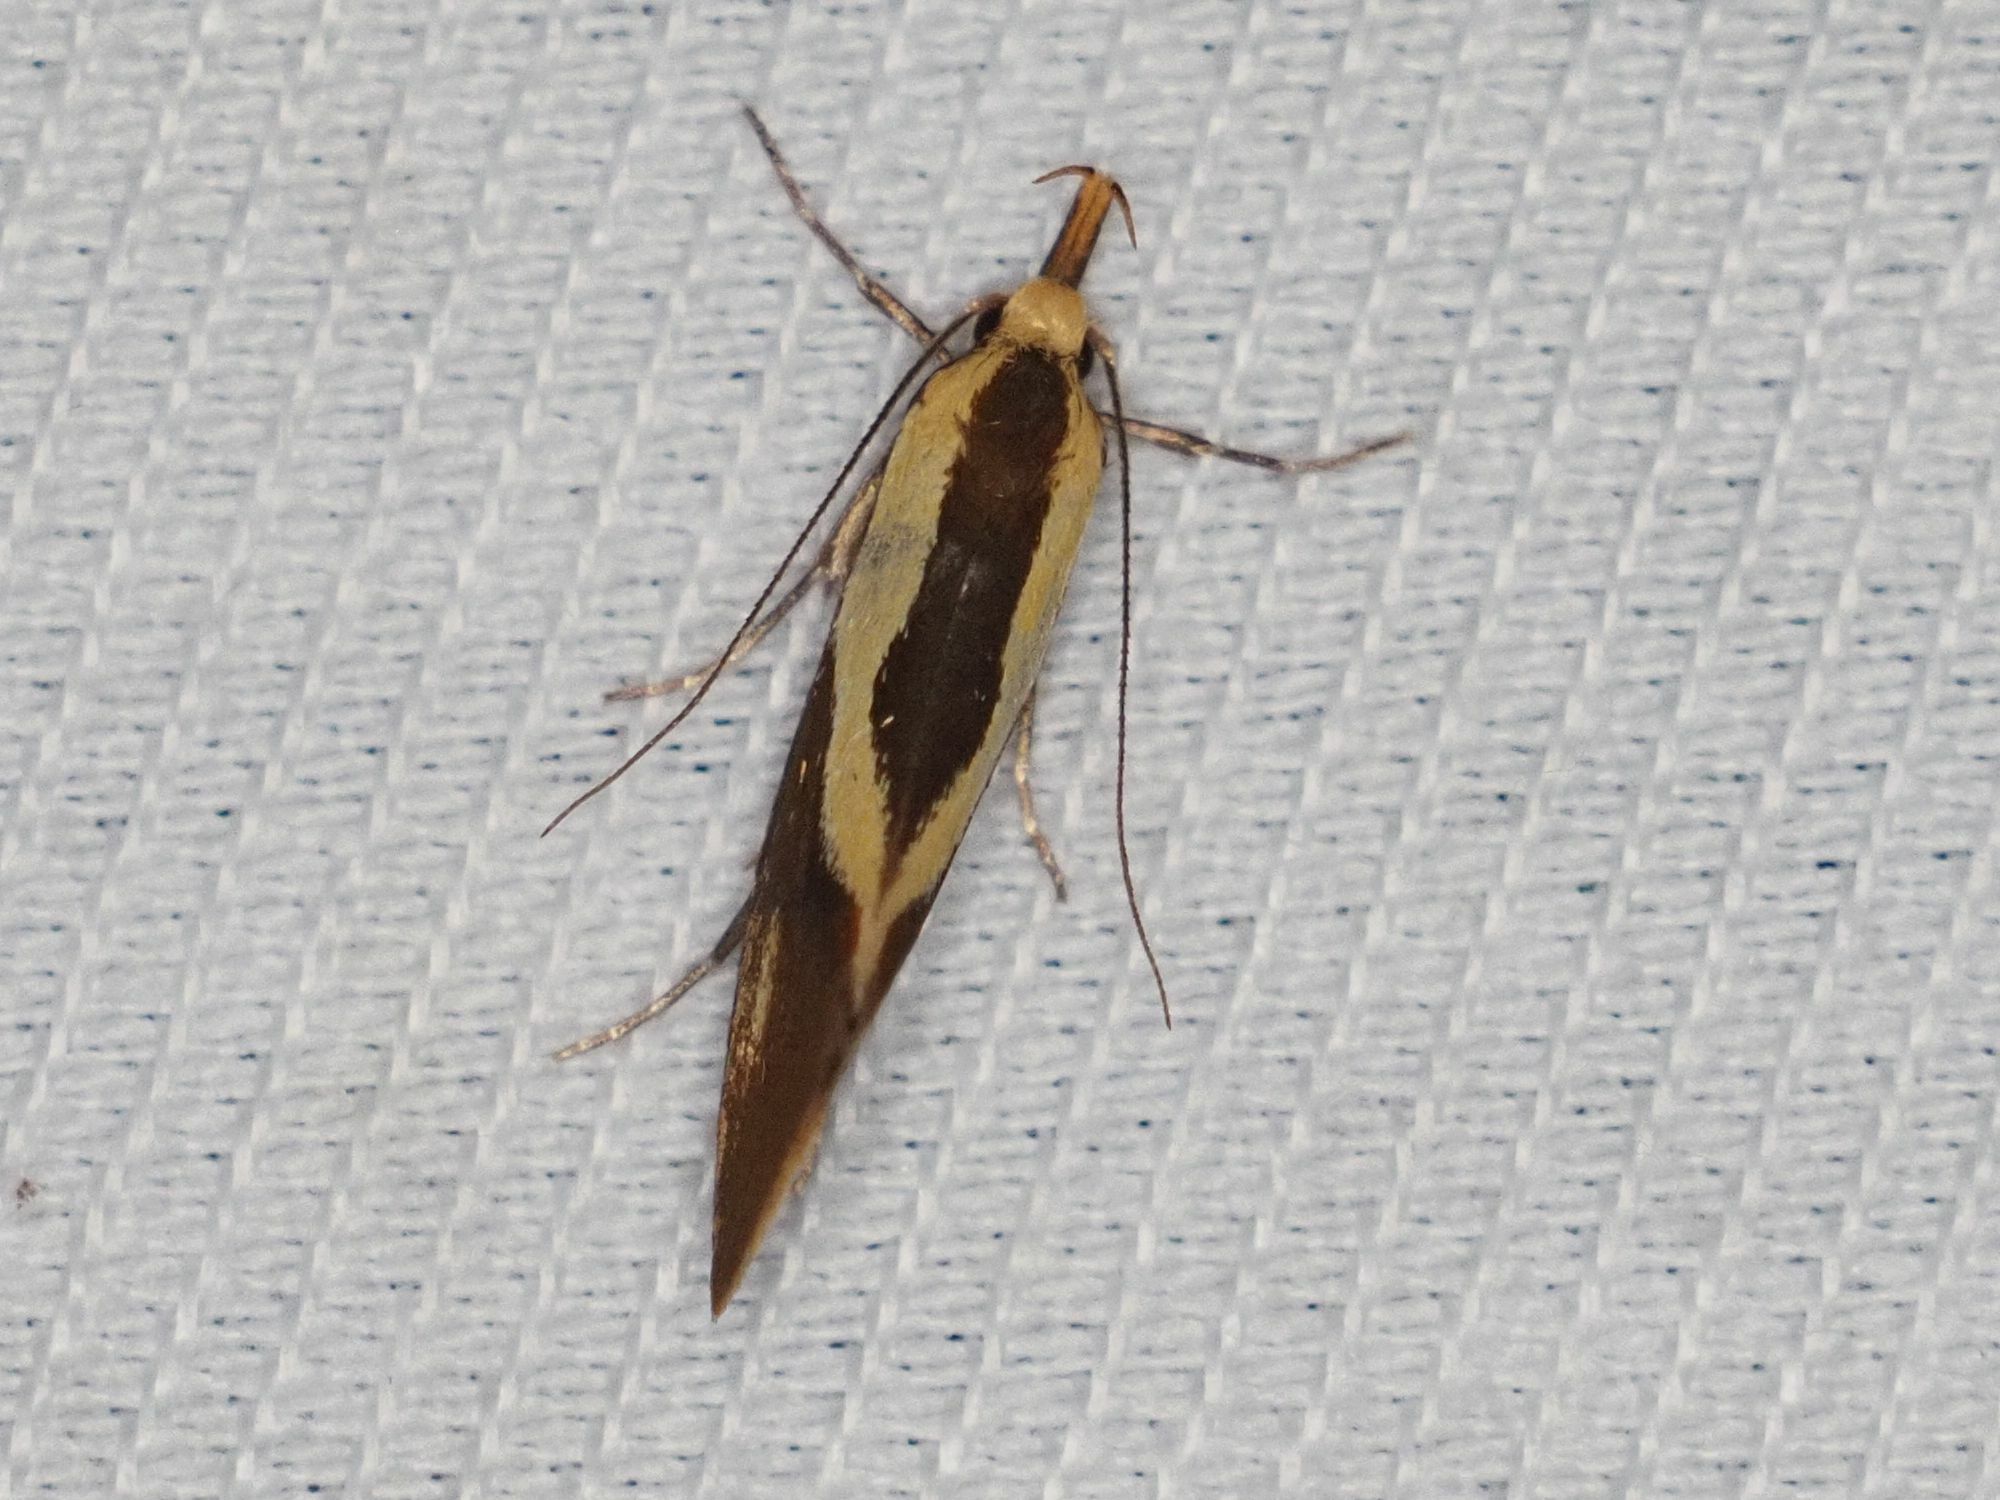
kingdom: Animalia
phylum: Arthropoda
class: Insecta
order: Lepidoptera
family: Oecophoridae
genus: Harpella
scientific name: Harpella forficella
